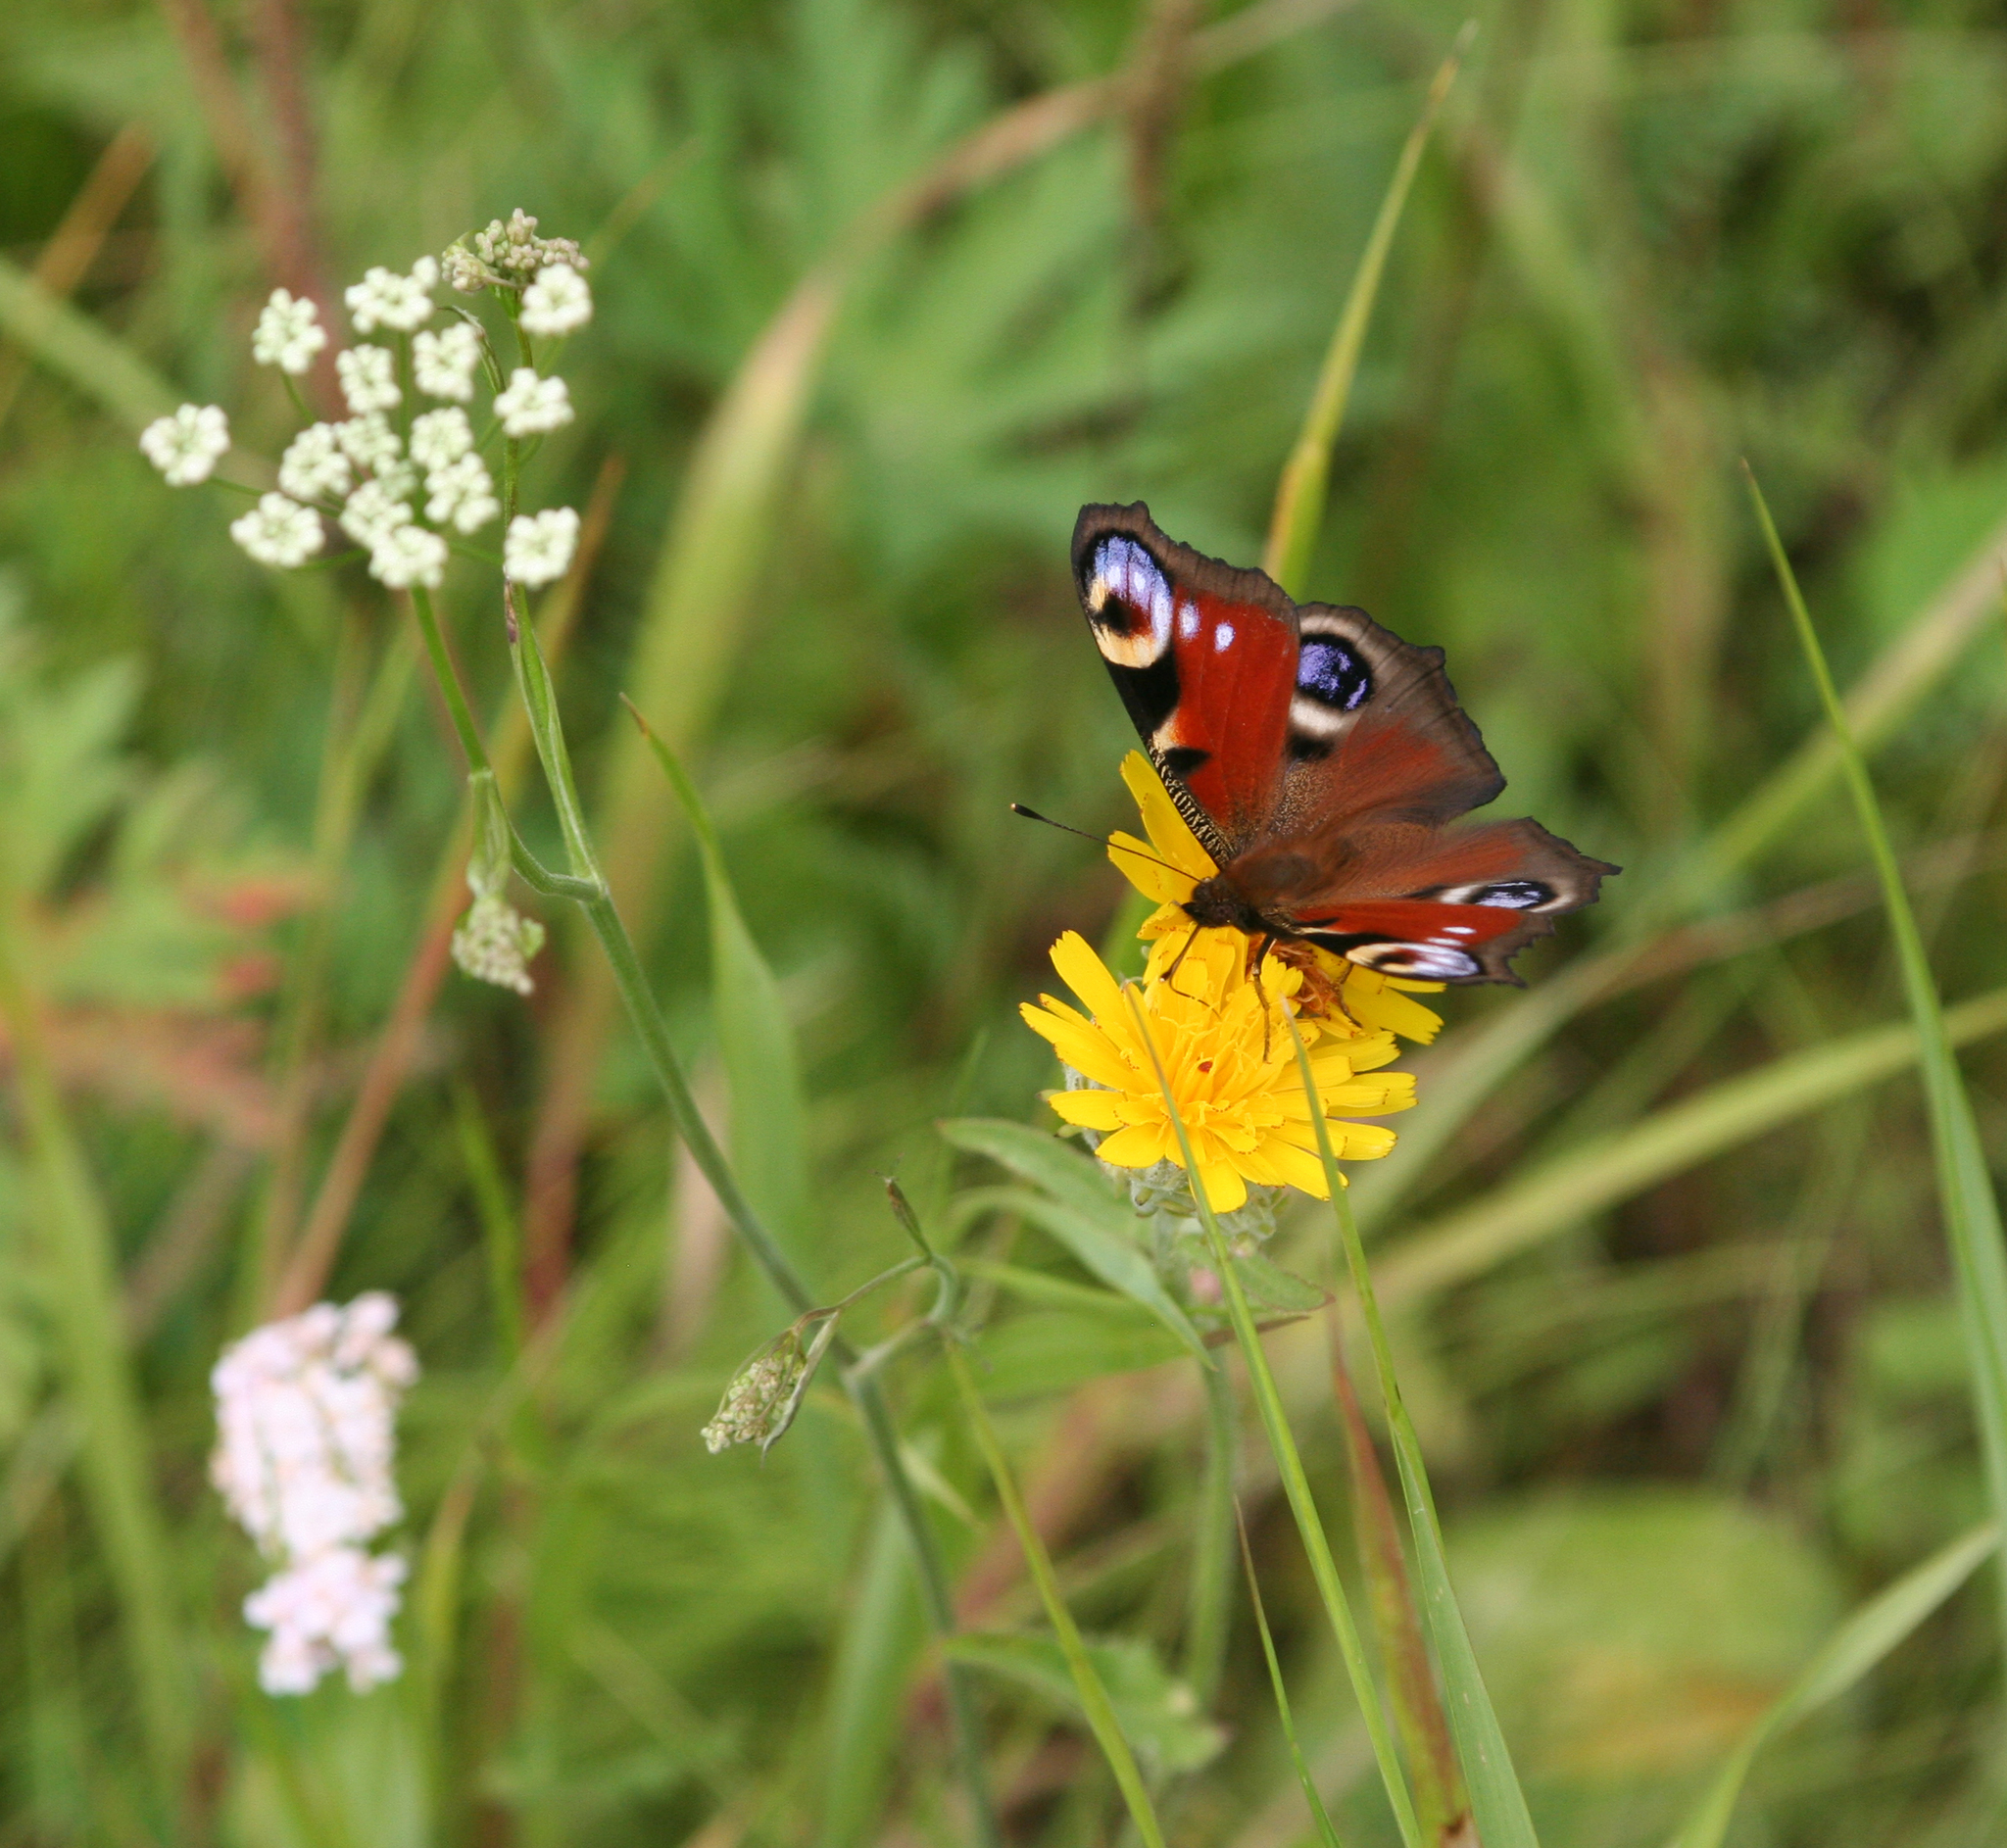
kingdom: Animalia
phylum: Arthropoda
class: Insecta
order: Lepidoptera
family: Nymphalidae
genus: Aglais
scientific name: Aglais io
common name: Peacock
